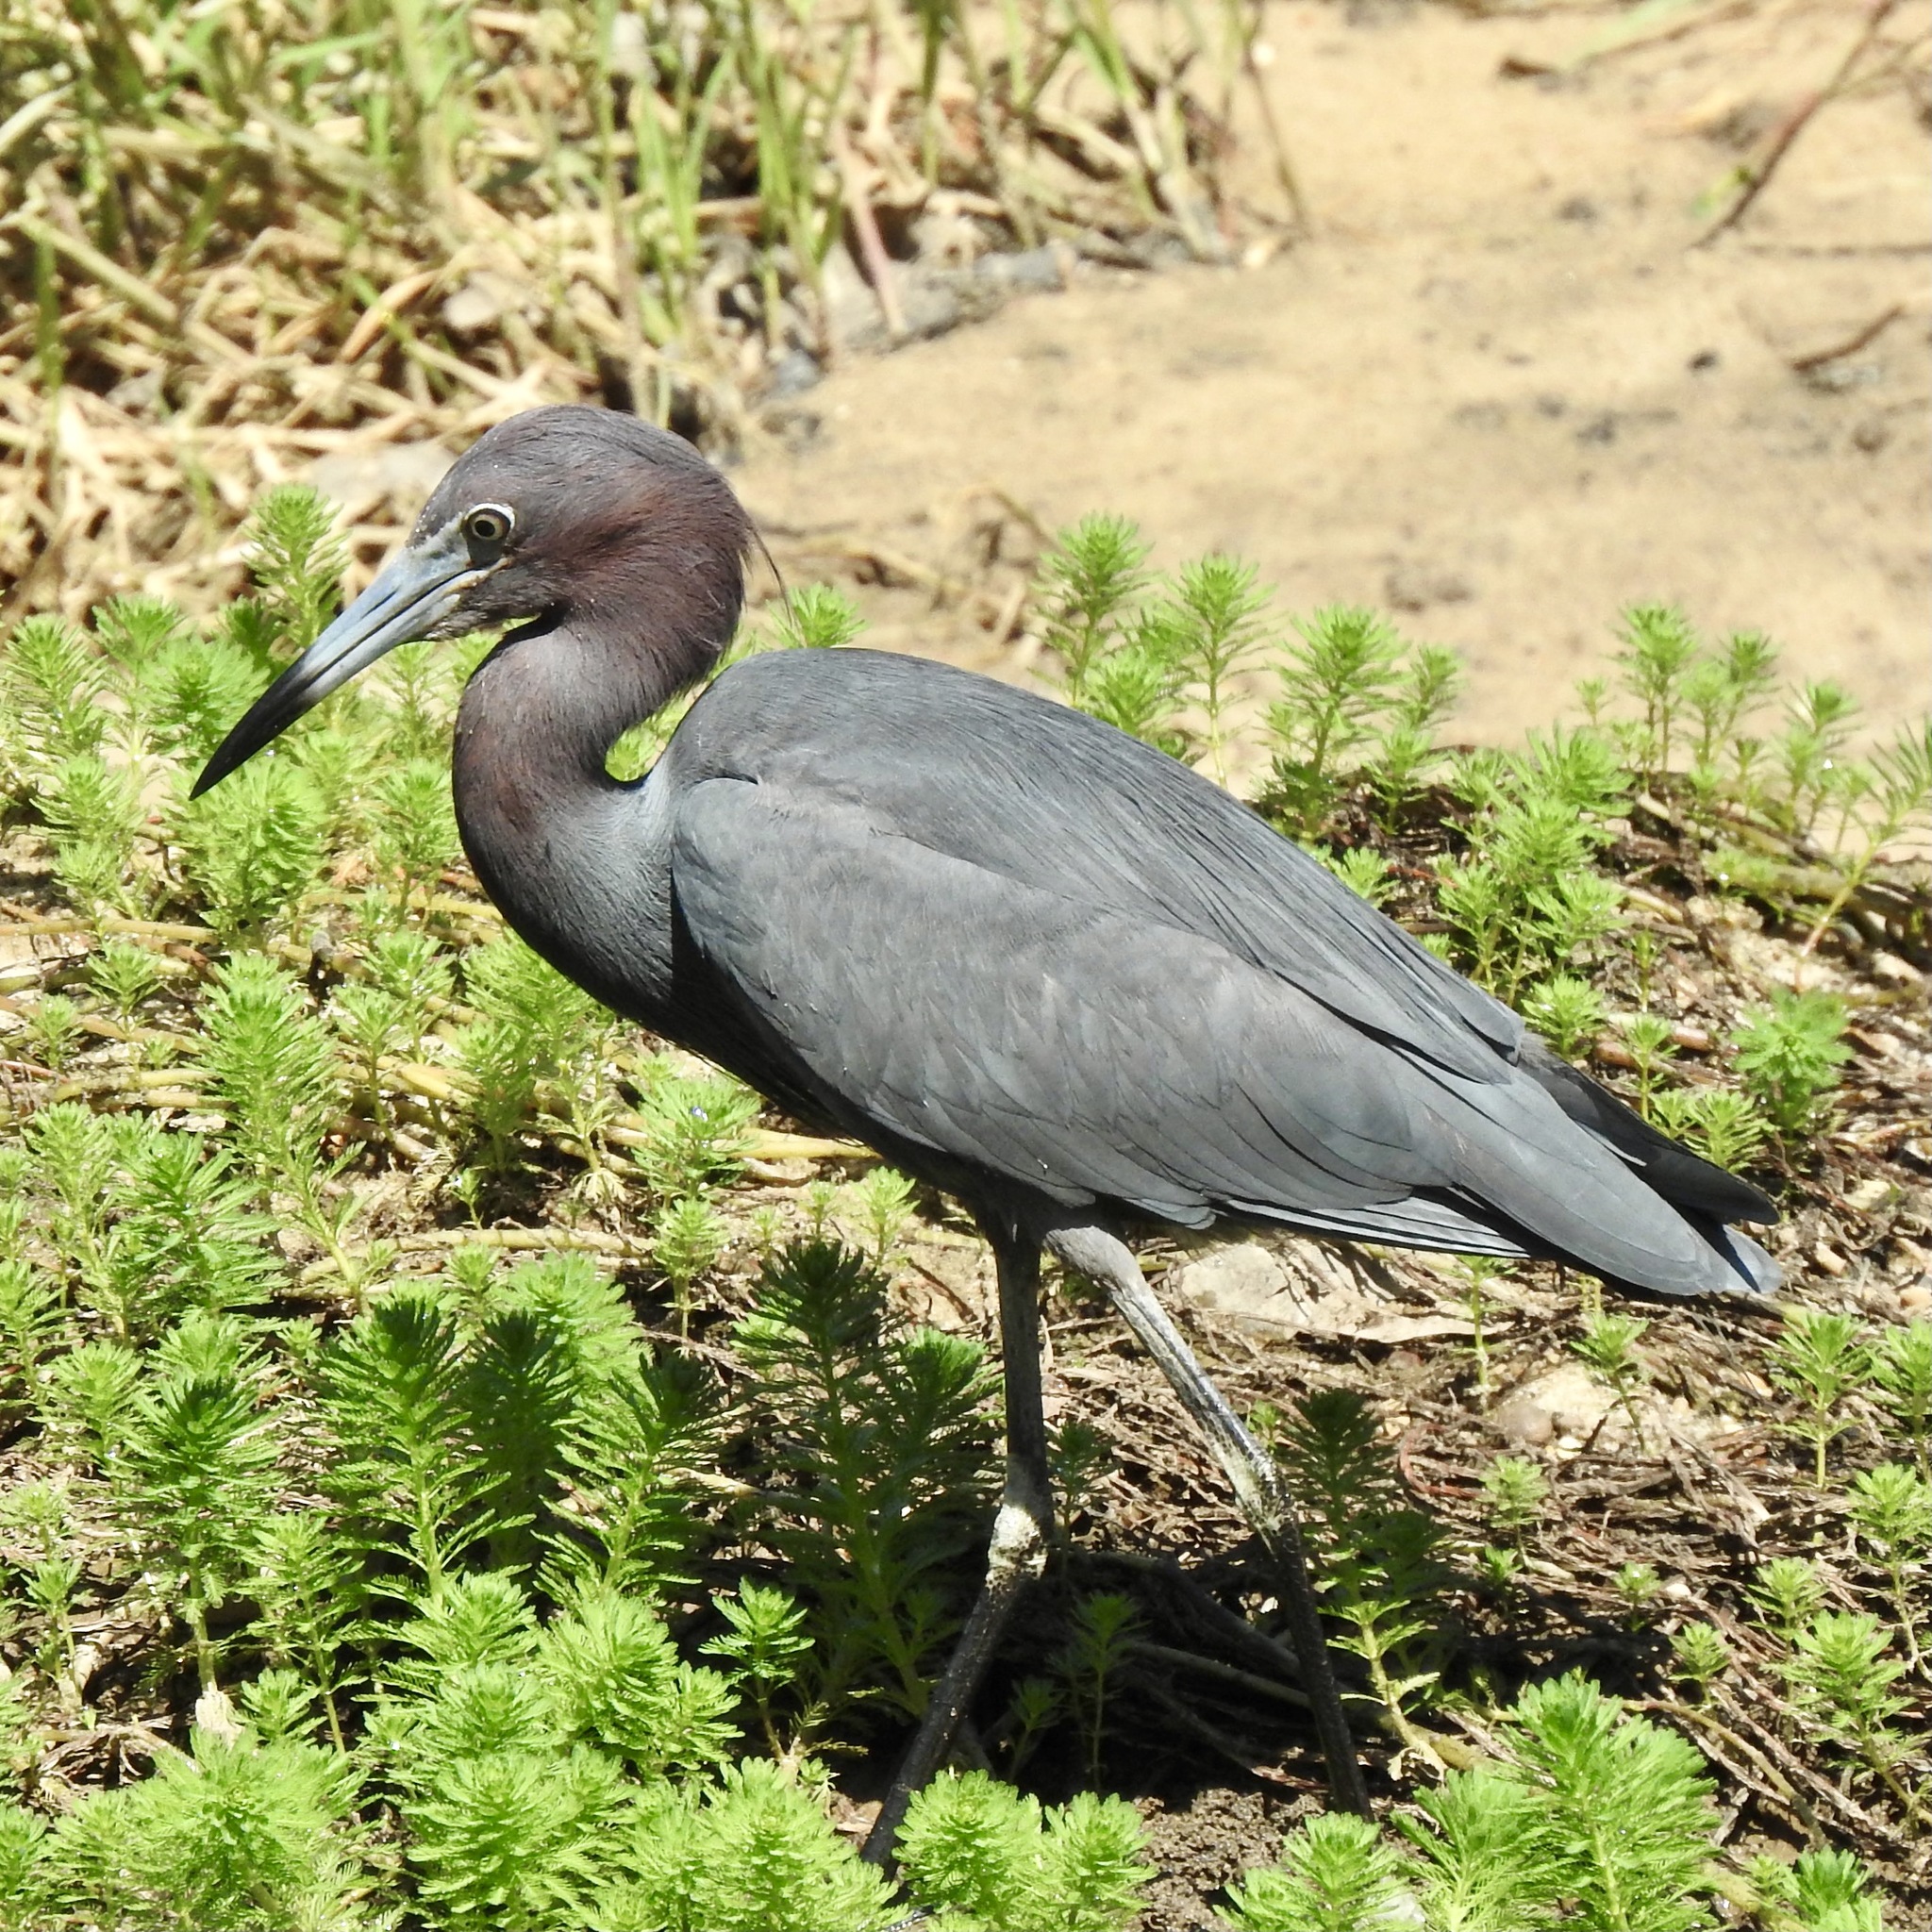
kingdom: Animalia
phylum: Chordata
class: Aves
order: Pelecaniformes
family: Ardeidae
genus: Egretta
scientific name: Egretta caerulea
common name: Little blue heron
